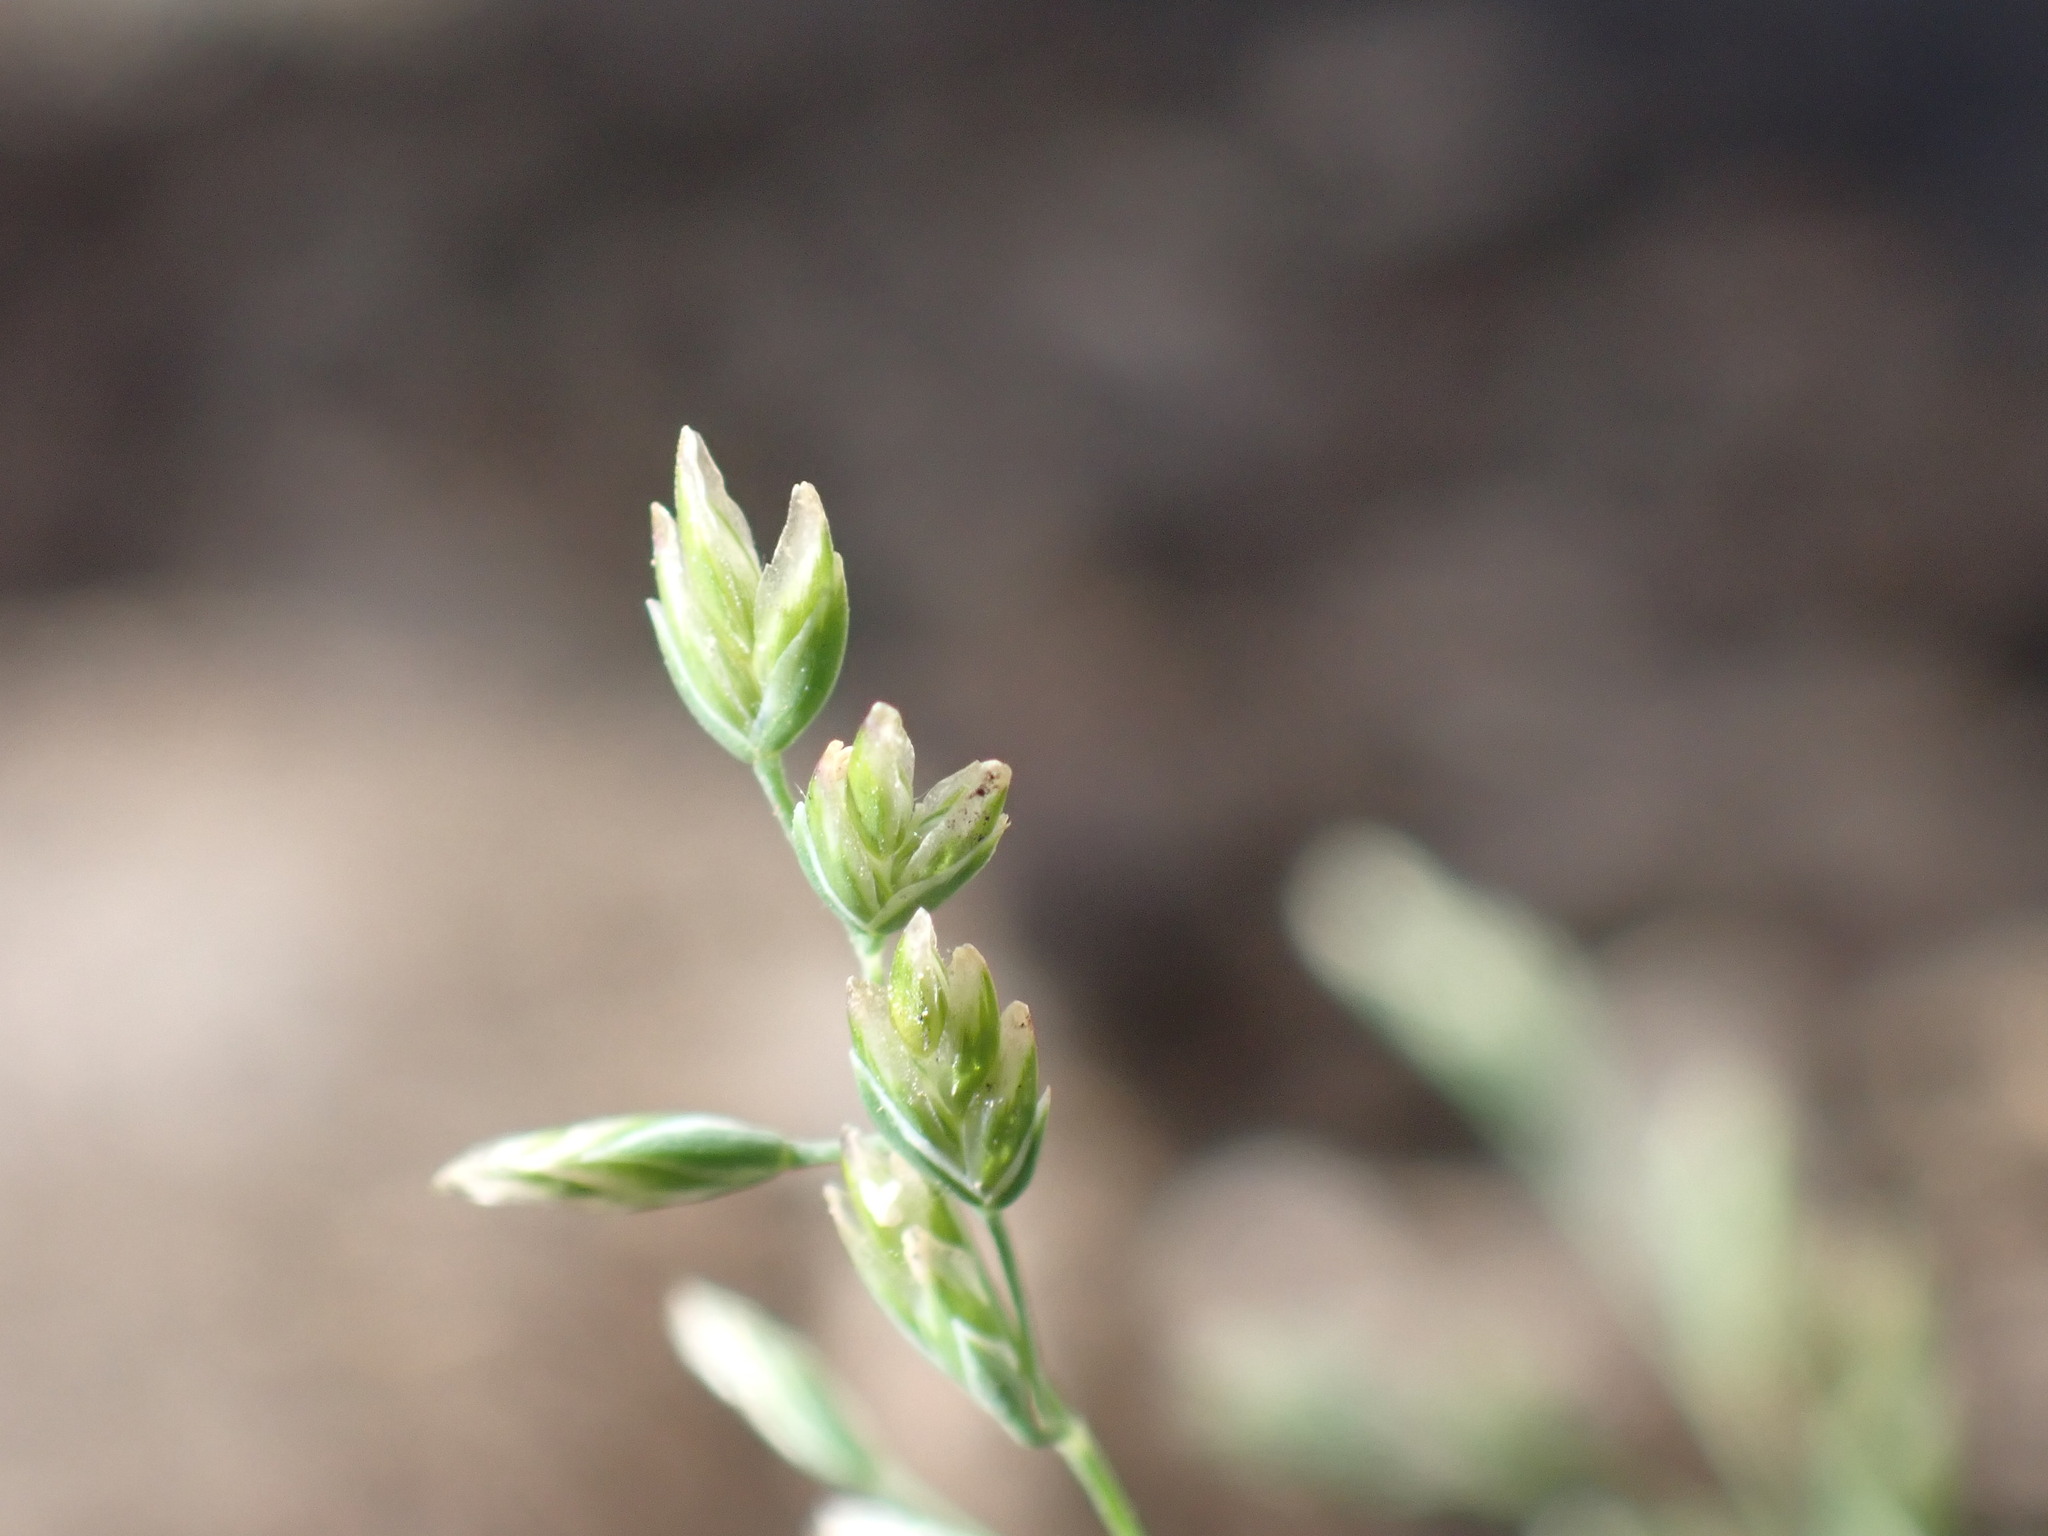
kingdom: Plantae
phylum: Tracheophyta
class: Liliopsida
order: Poales
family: Poaceae
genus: Poa
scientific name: Poa annua
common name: Annual bluegrass
